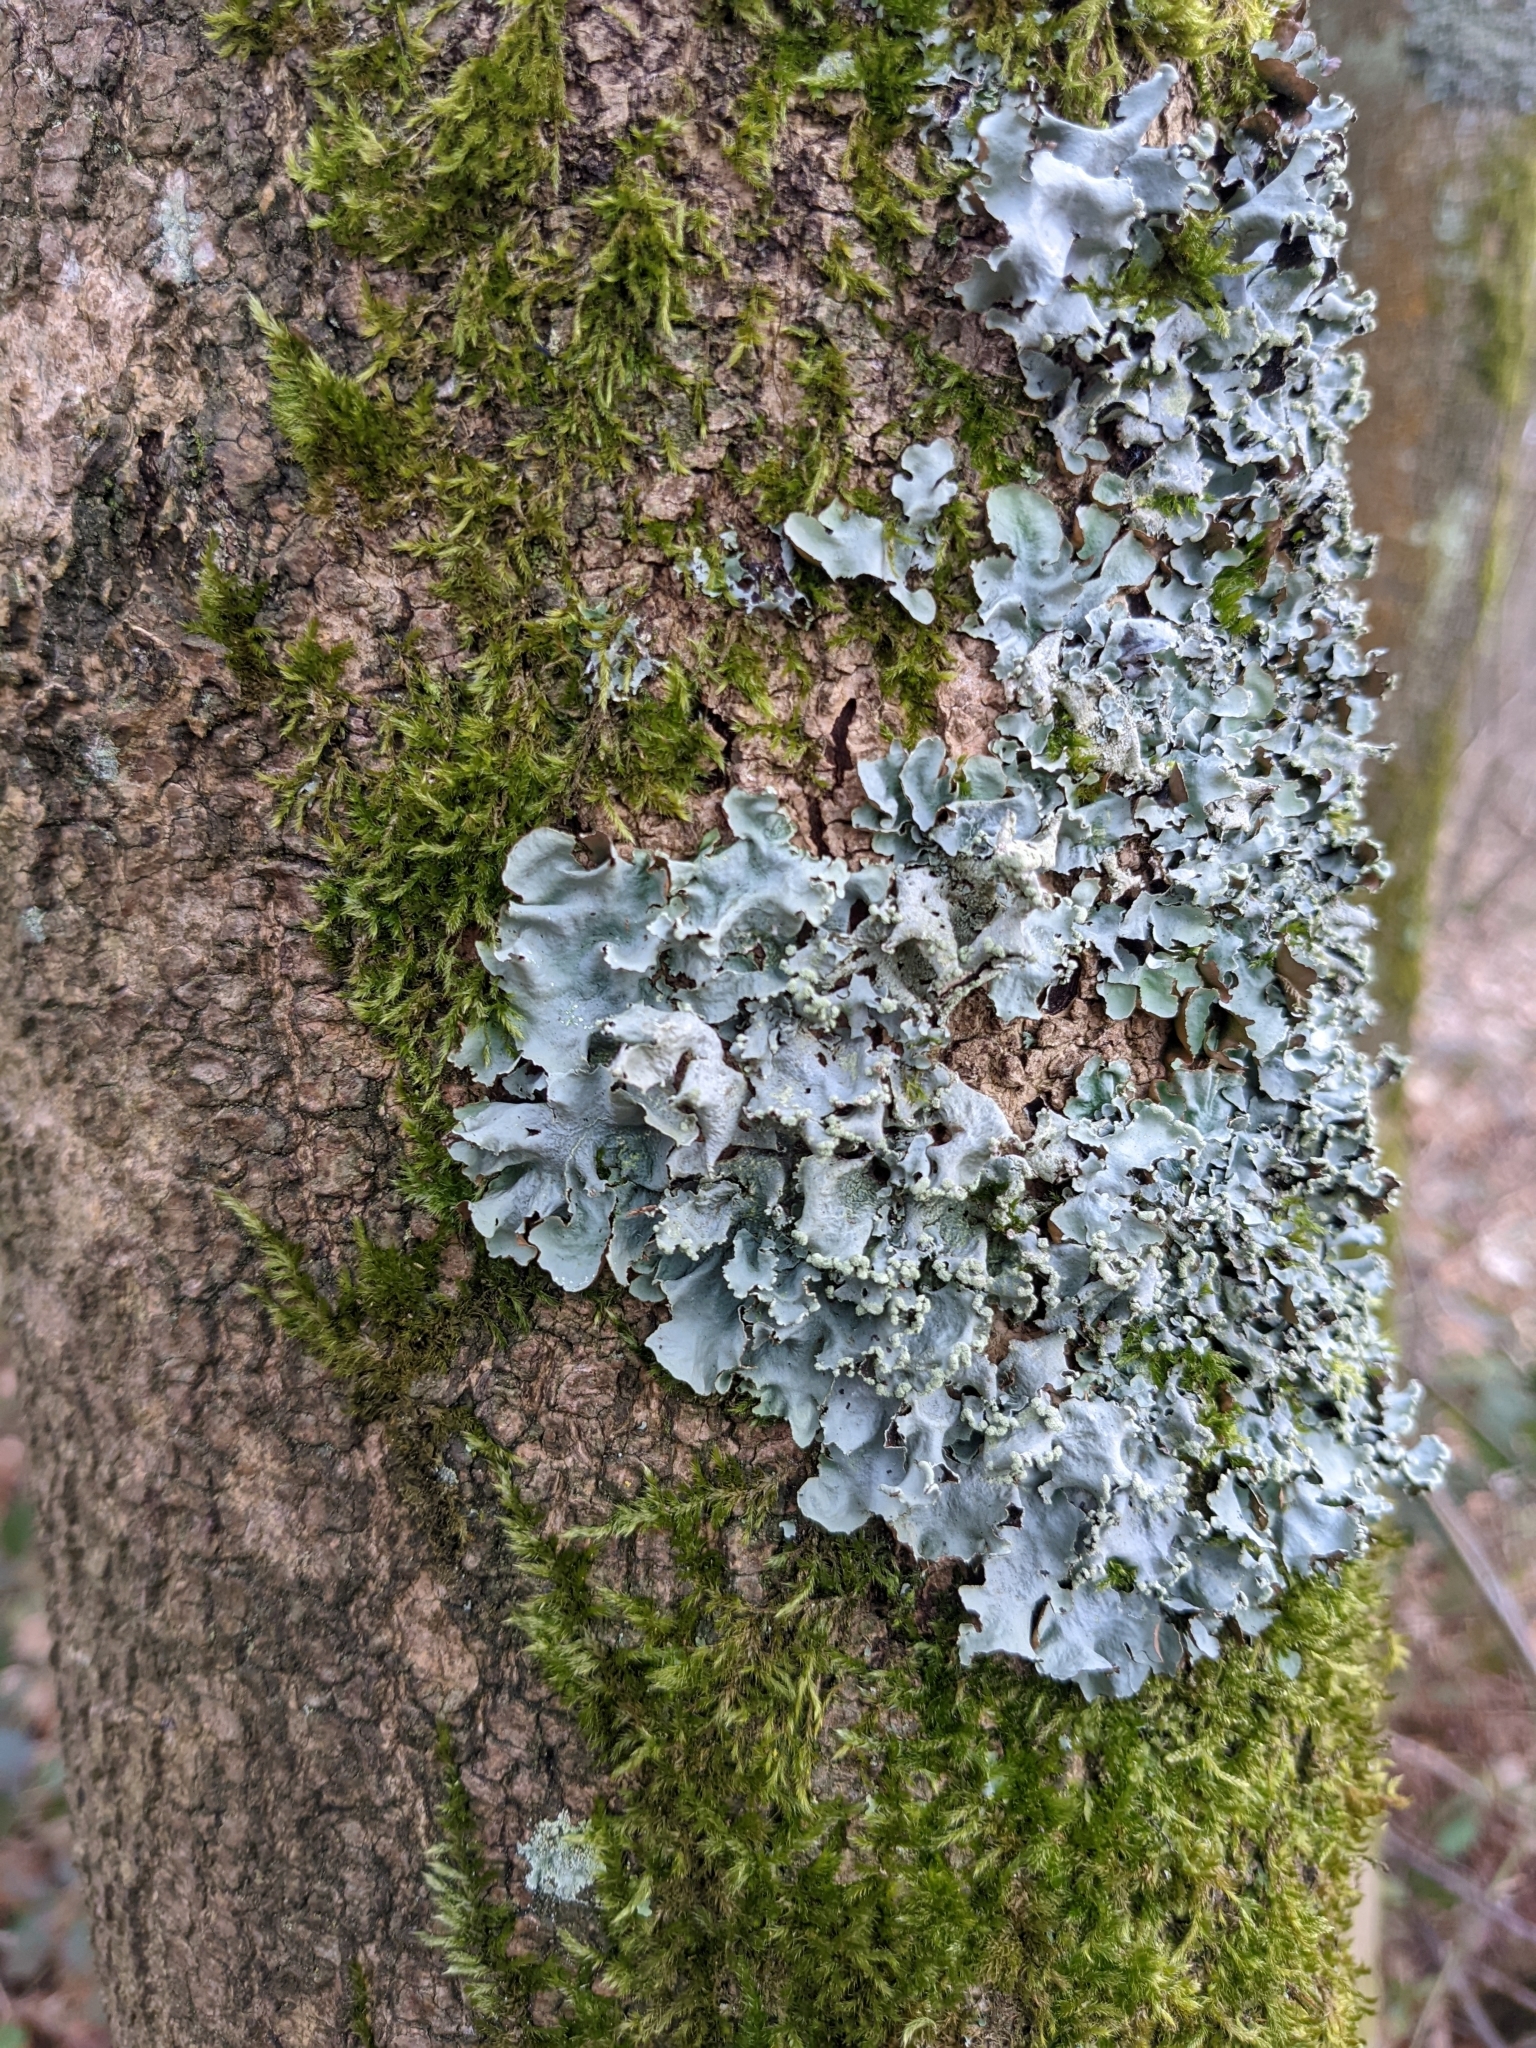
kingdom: Fungi
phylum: Ascomycota
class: Lecanoromycetes
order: Lecanorales
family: Parmeliaceae
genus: Parmotrema
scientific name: Parmotrema perlatum
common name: Black stone flower
